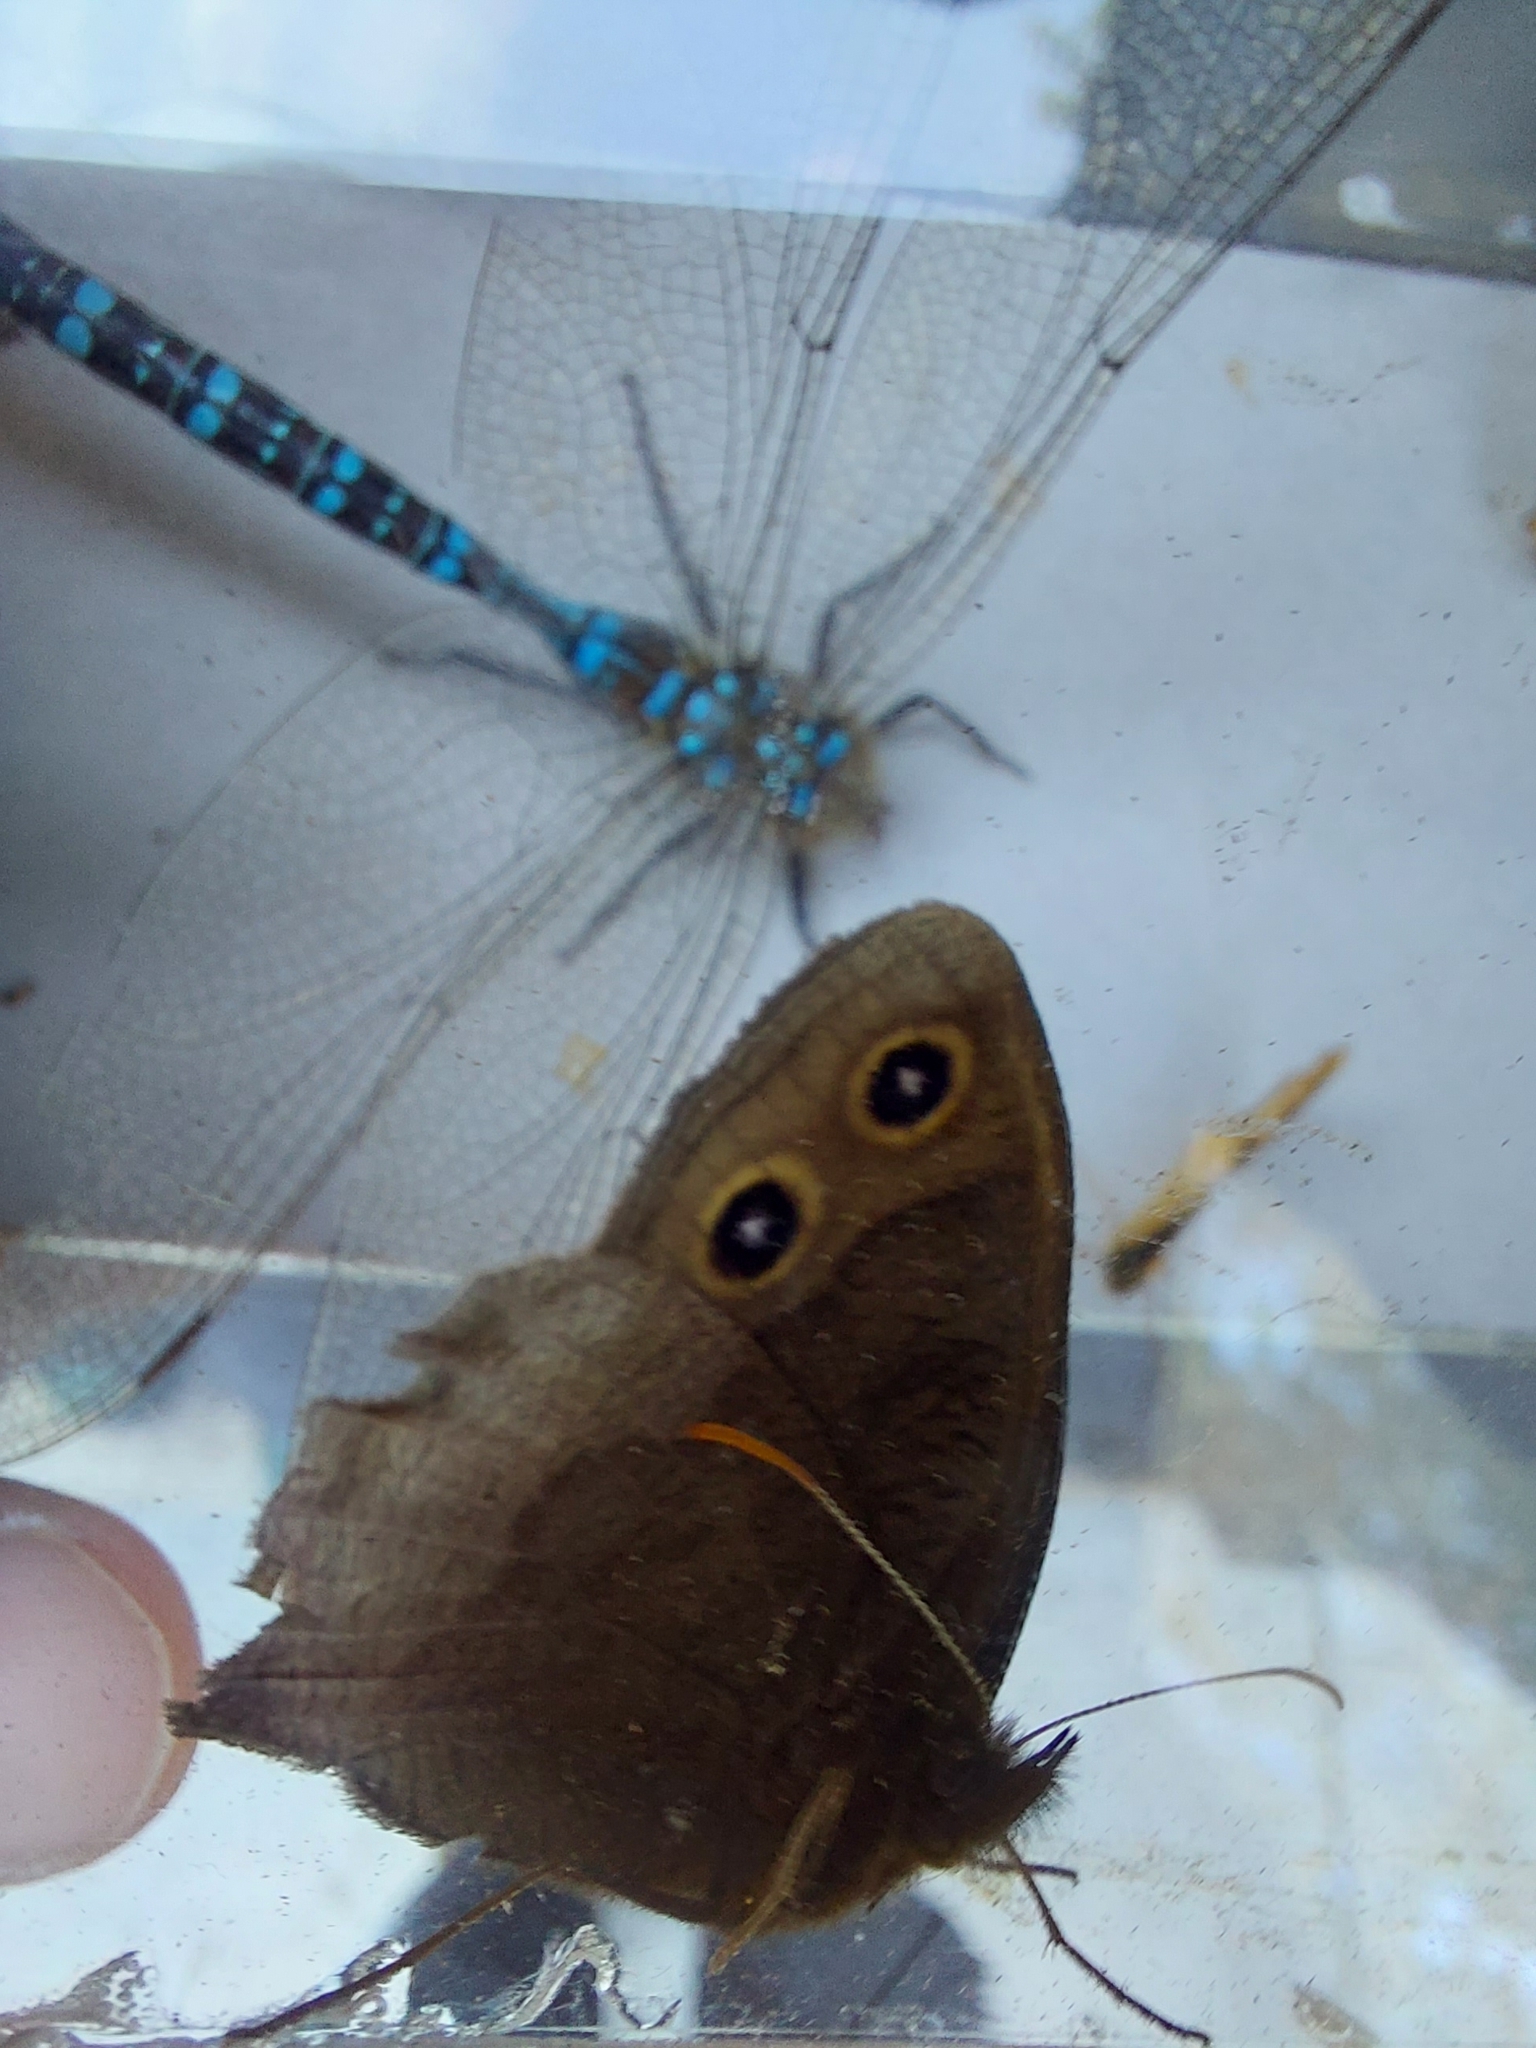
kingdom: Animalia
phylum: Arthropoda
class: Insecta
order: Lepidoptera
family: Nymphalidae
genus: Cercyonis
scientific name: Cercyonis pegala
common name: Common wood-nymph
